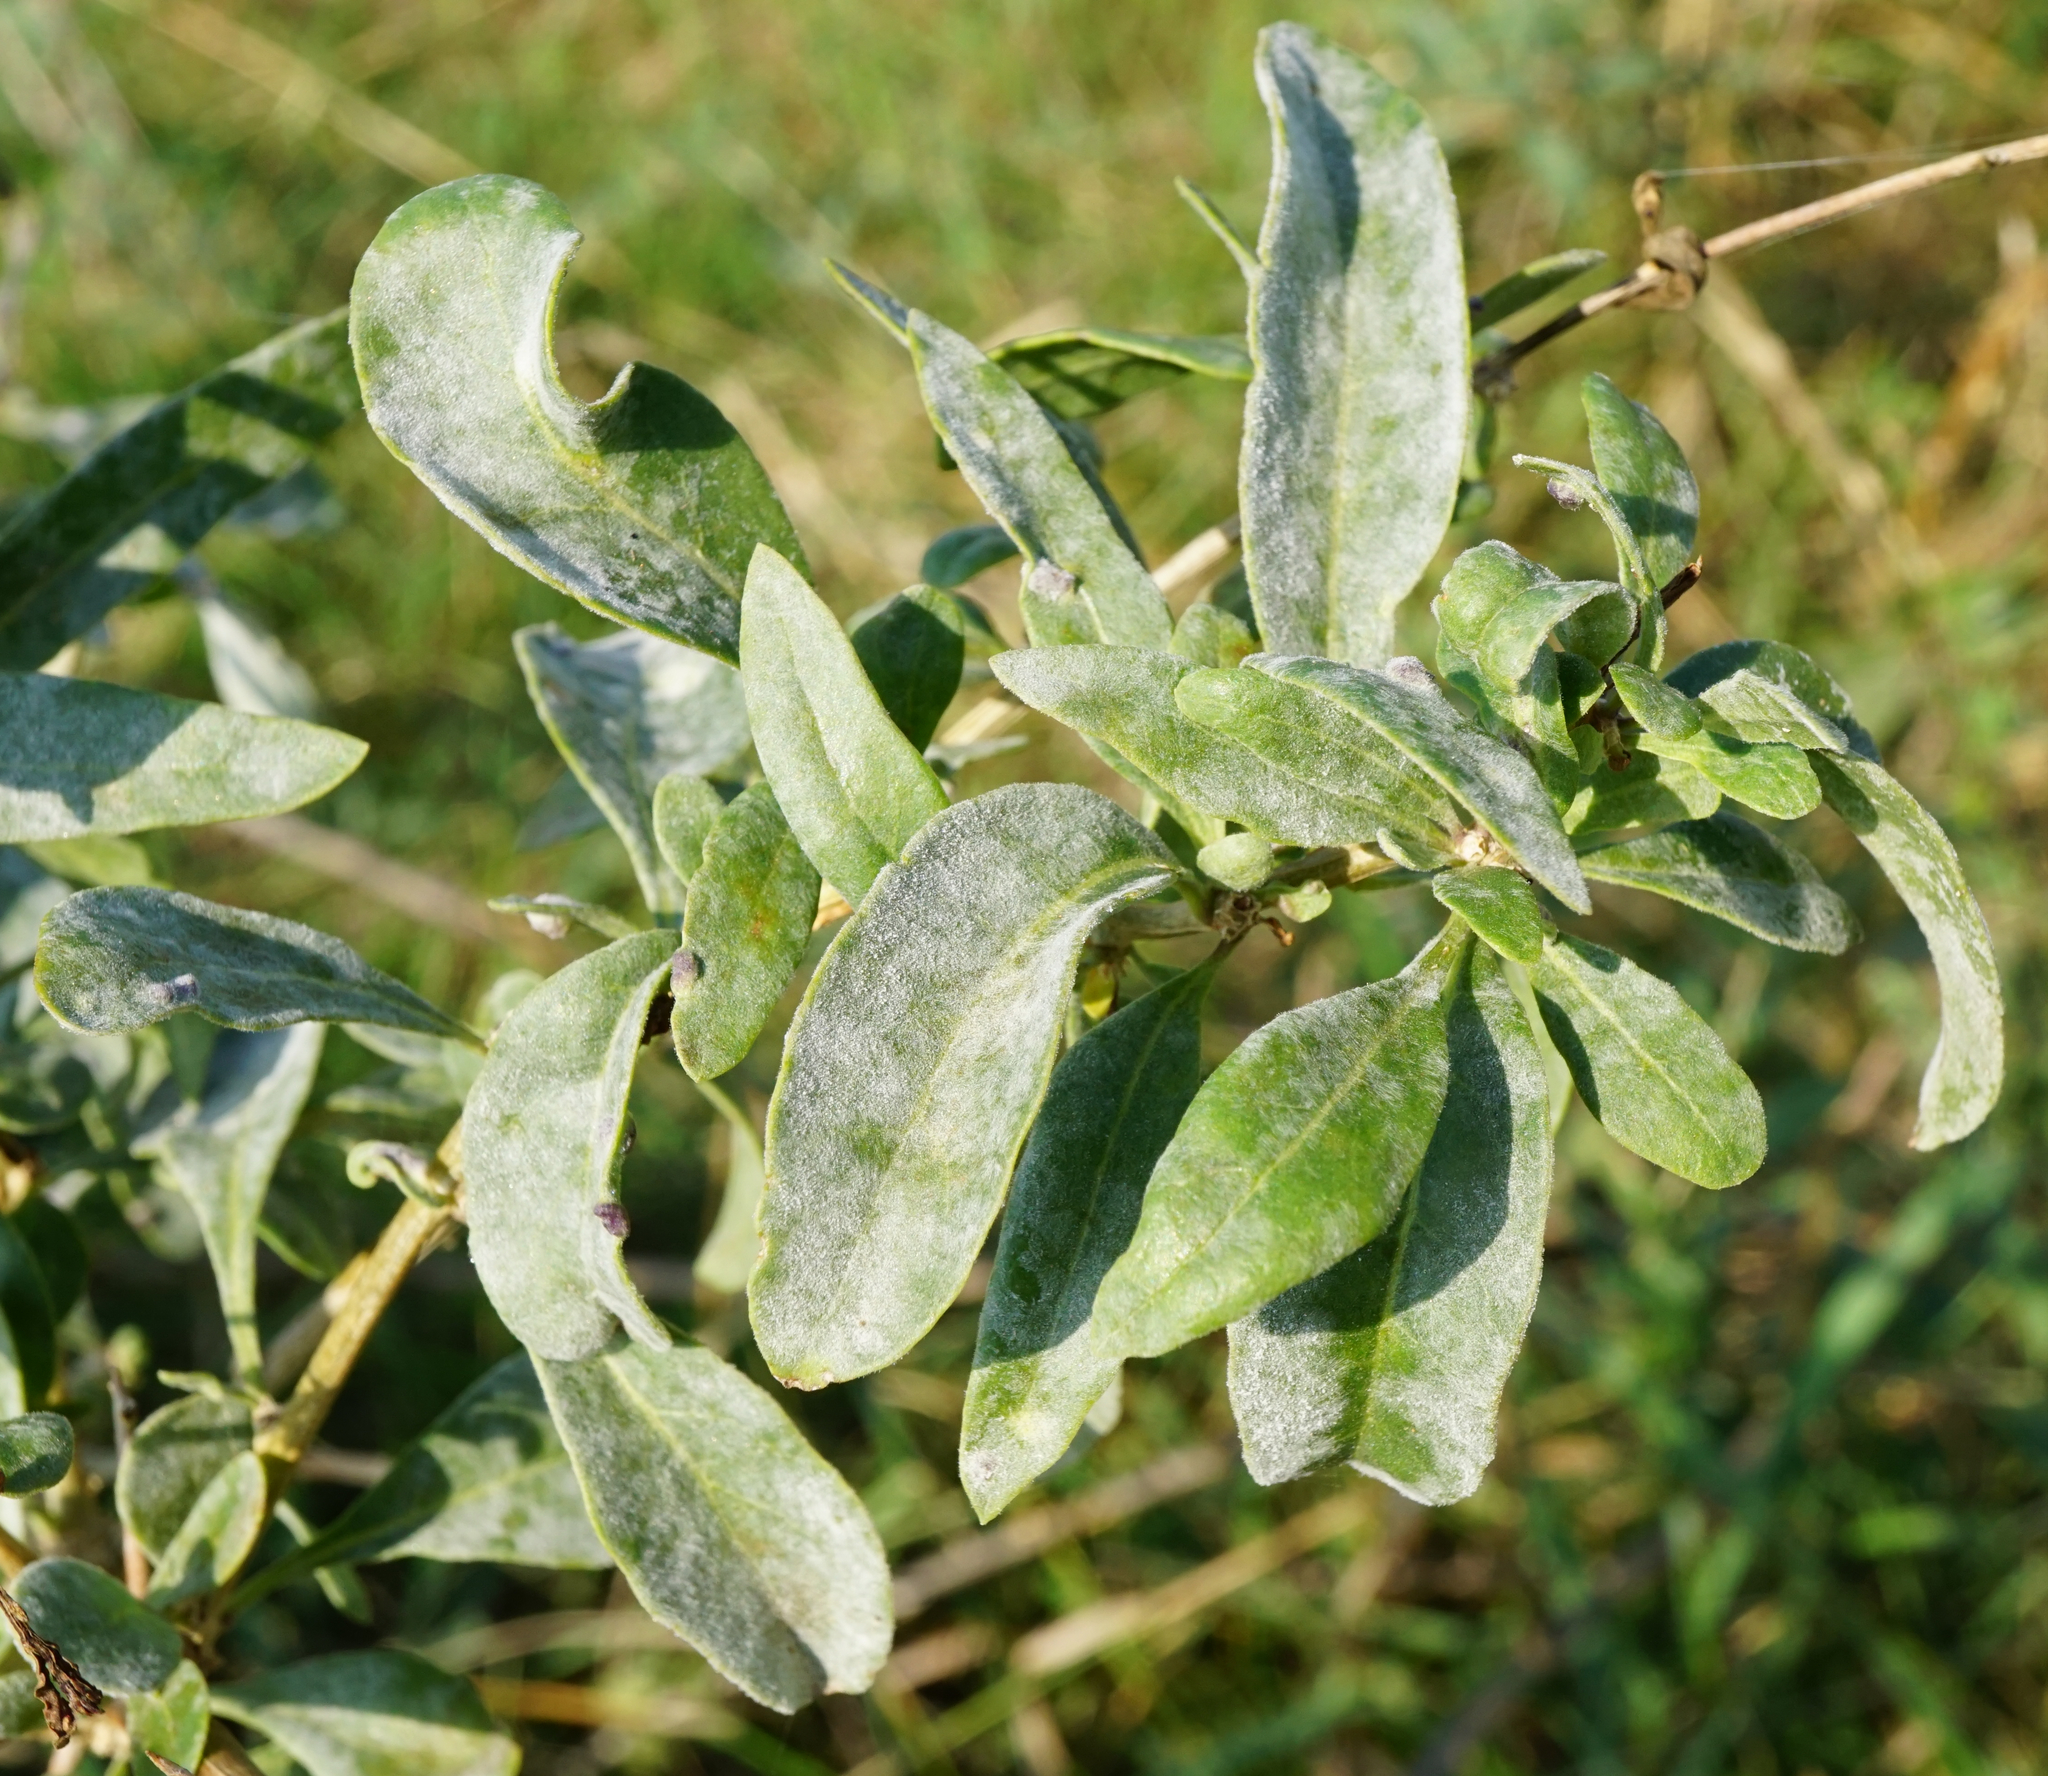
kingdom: Fungi
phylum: Ascomycota
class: Leotiomycetes
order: Helotiales
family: Erysiphaceae
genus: Erysiphe
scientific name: Erysiphe mougeotii
